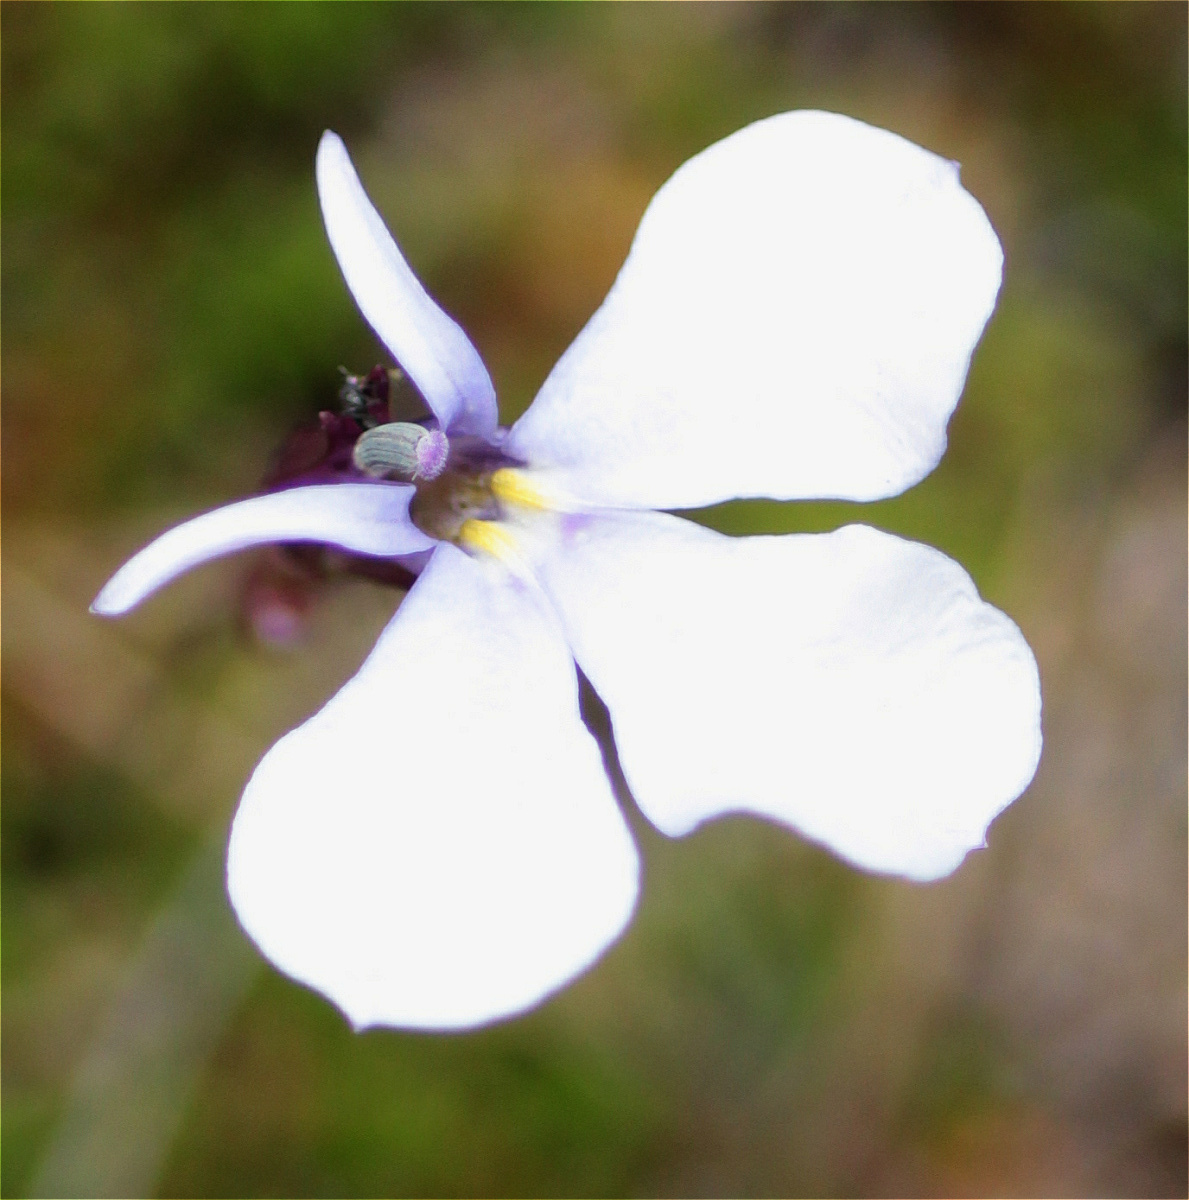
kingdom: Plantae
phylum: Tracheophyta
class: Magnoliopsida
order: Asterales
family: Campanulaceae
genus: Lobelia
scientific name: Lobelia tenera
